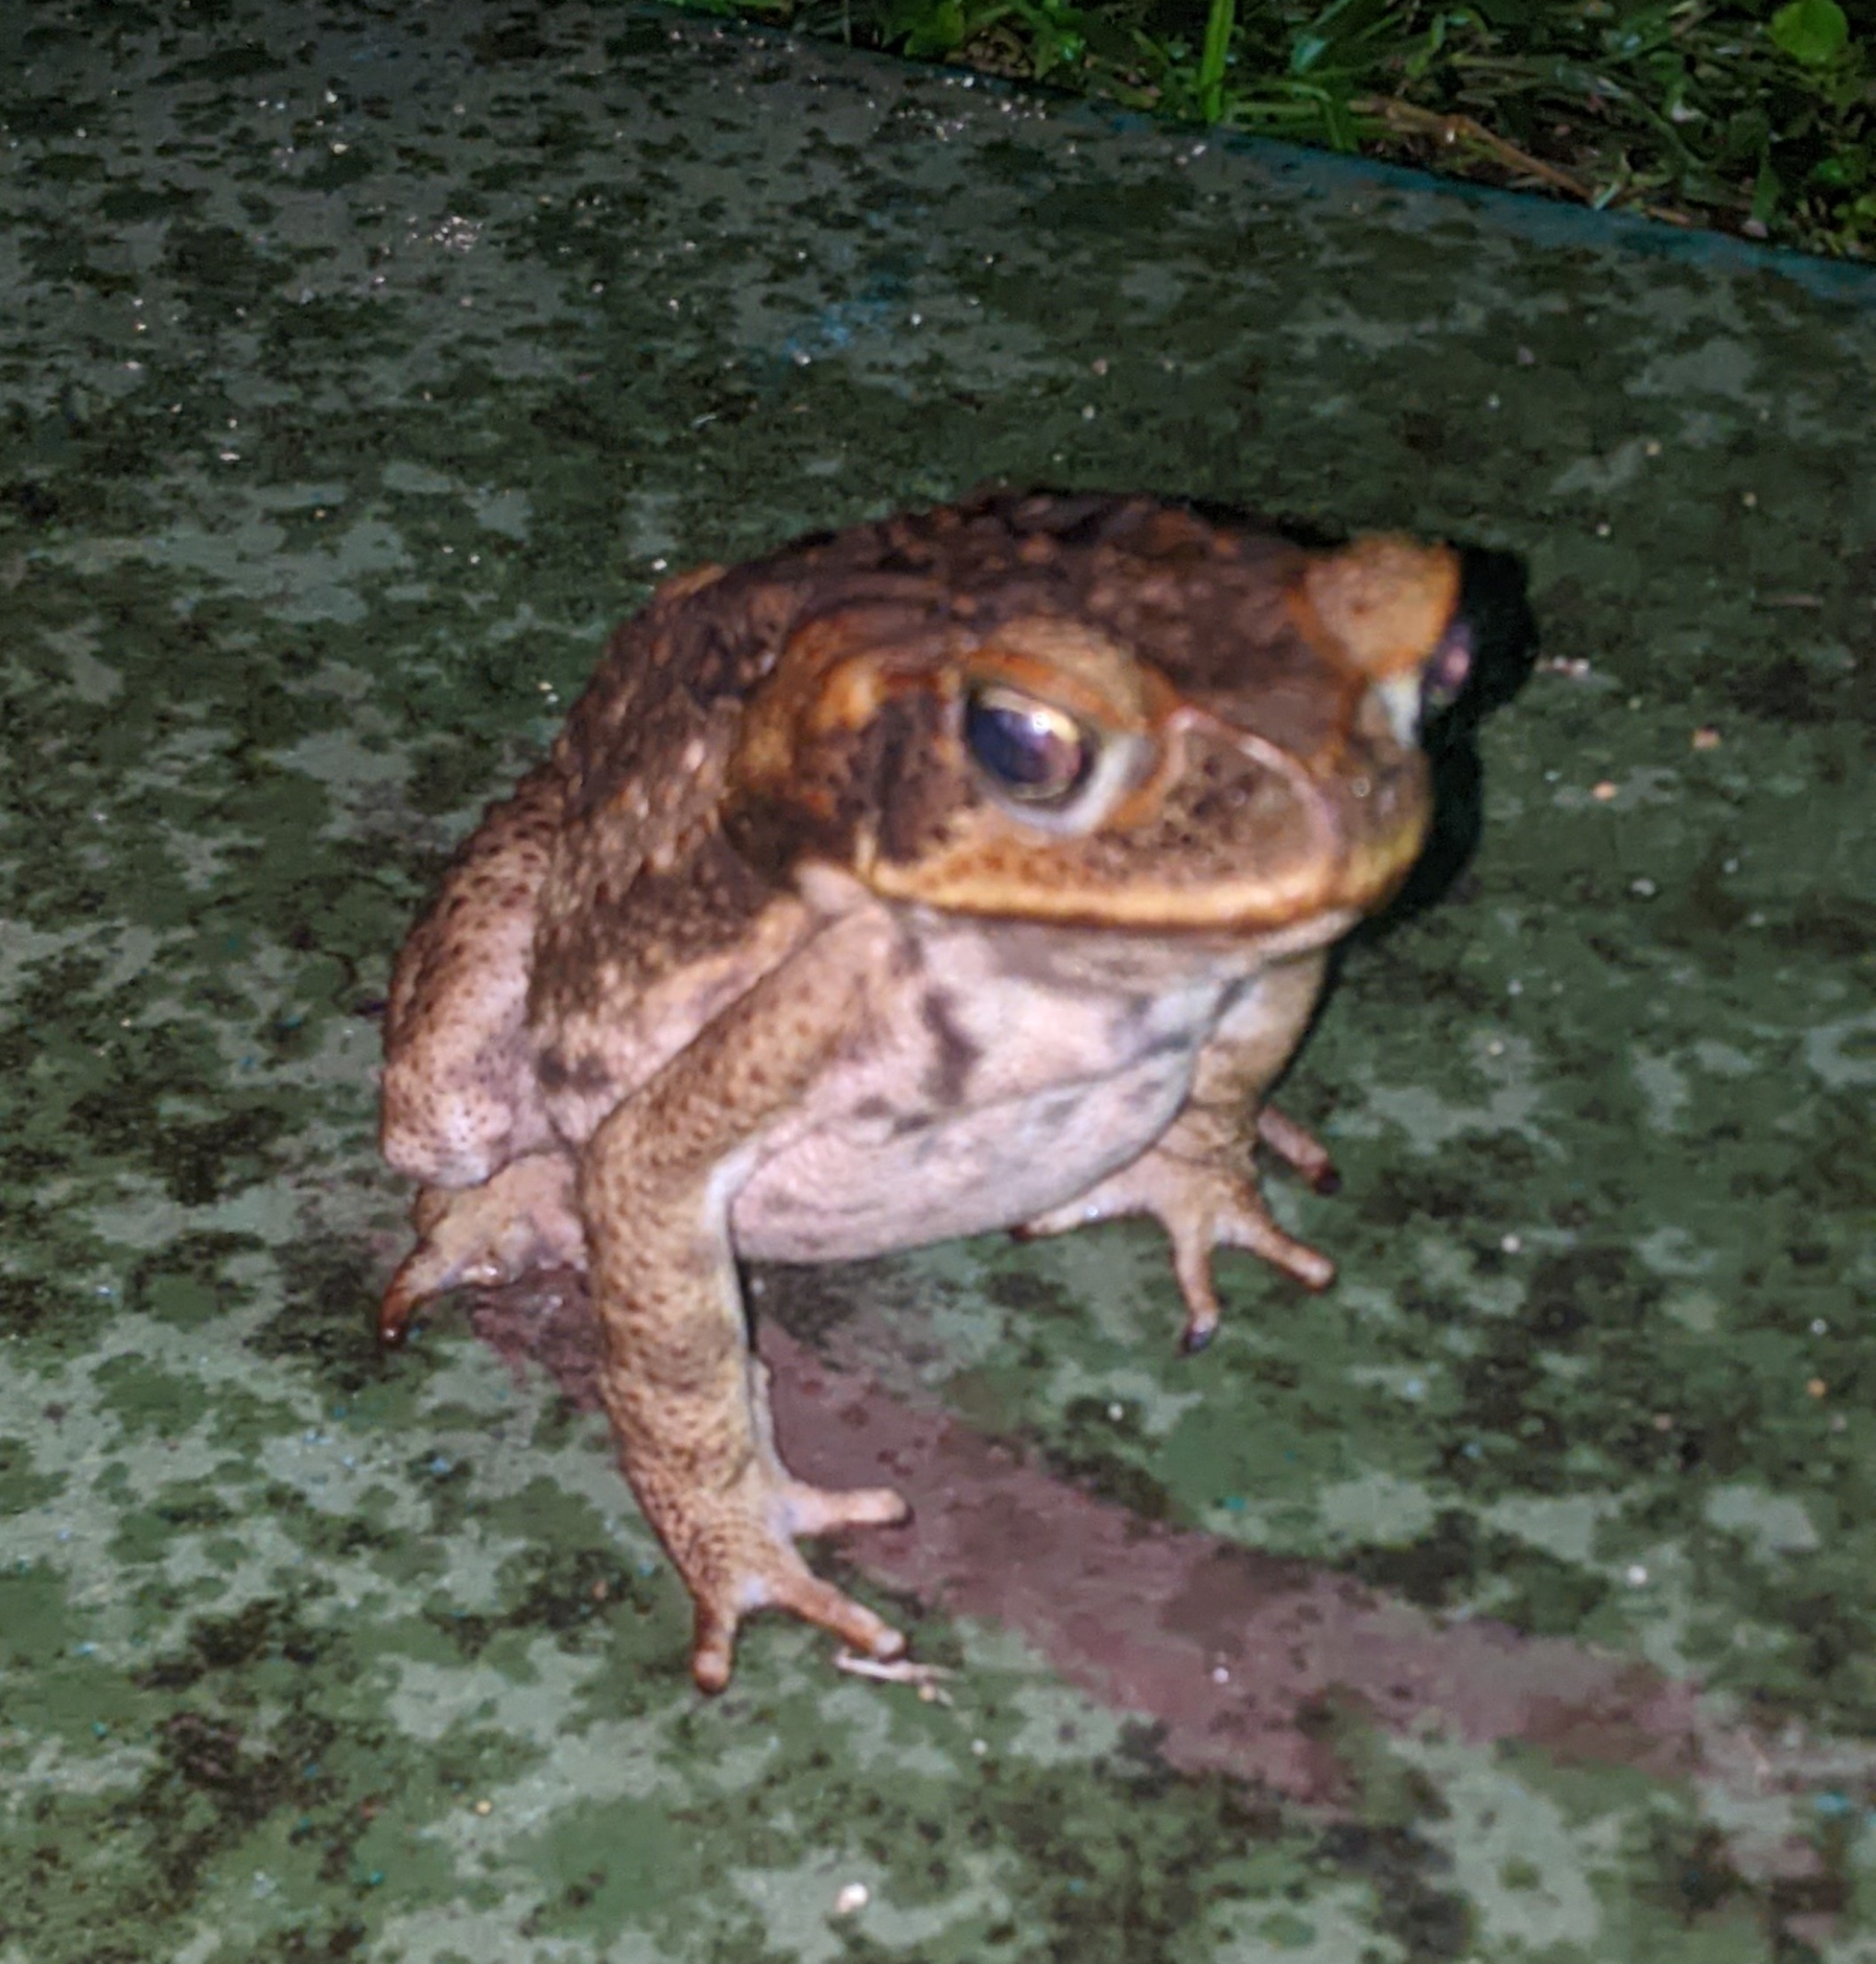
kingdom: Animalia
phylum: Chordata
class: Amphibia
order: Anura
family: Bufonidae
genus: Rhinella
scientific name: Rhinella marina
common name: Cane toad
